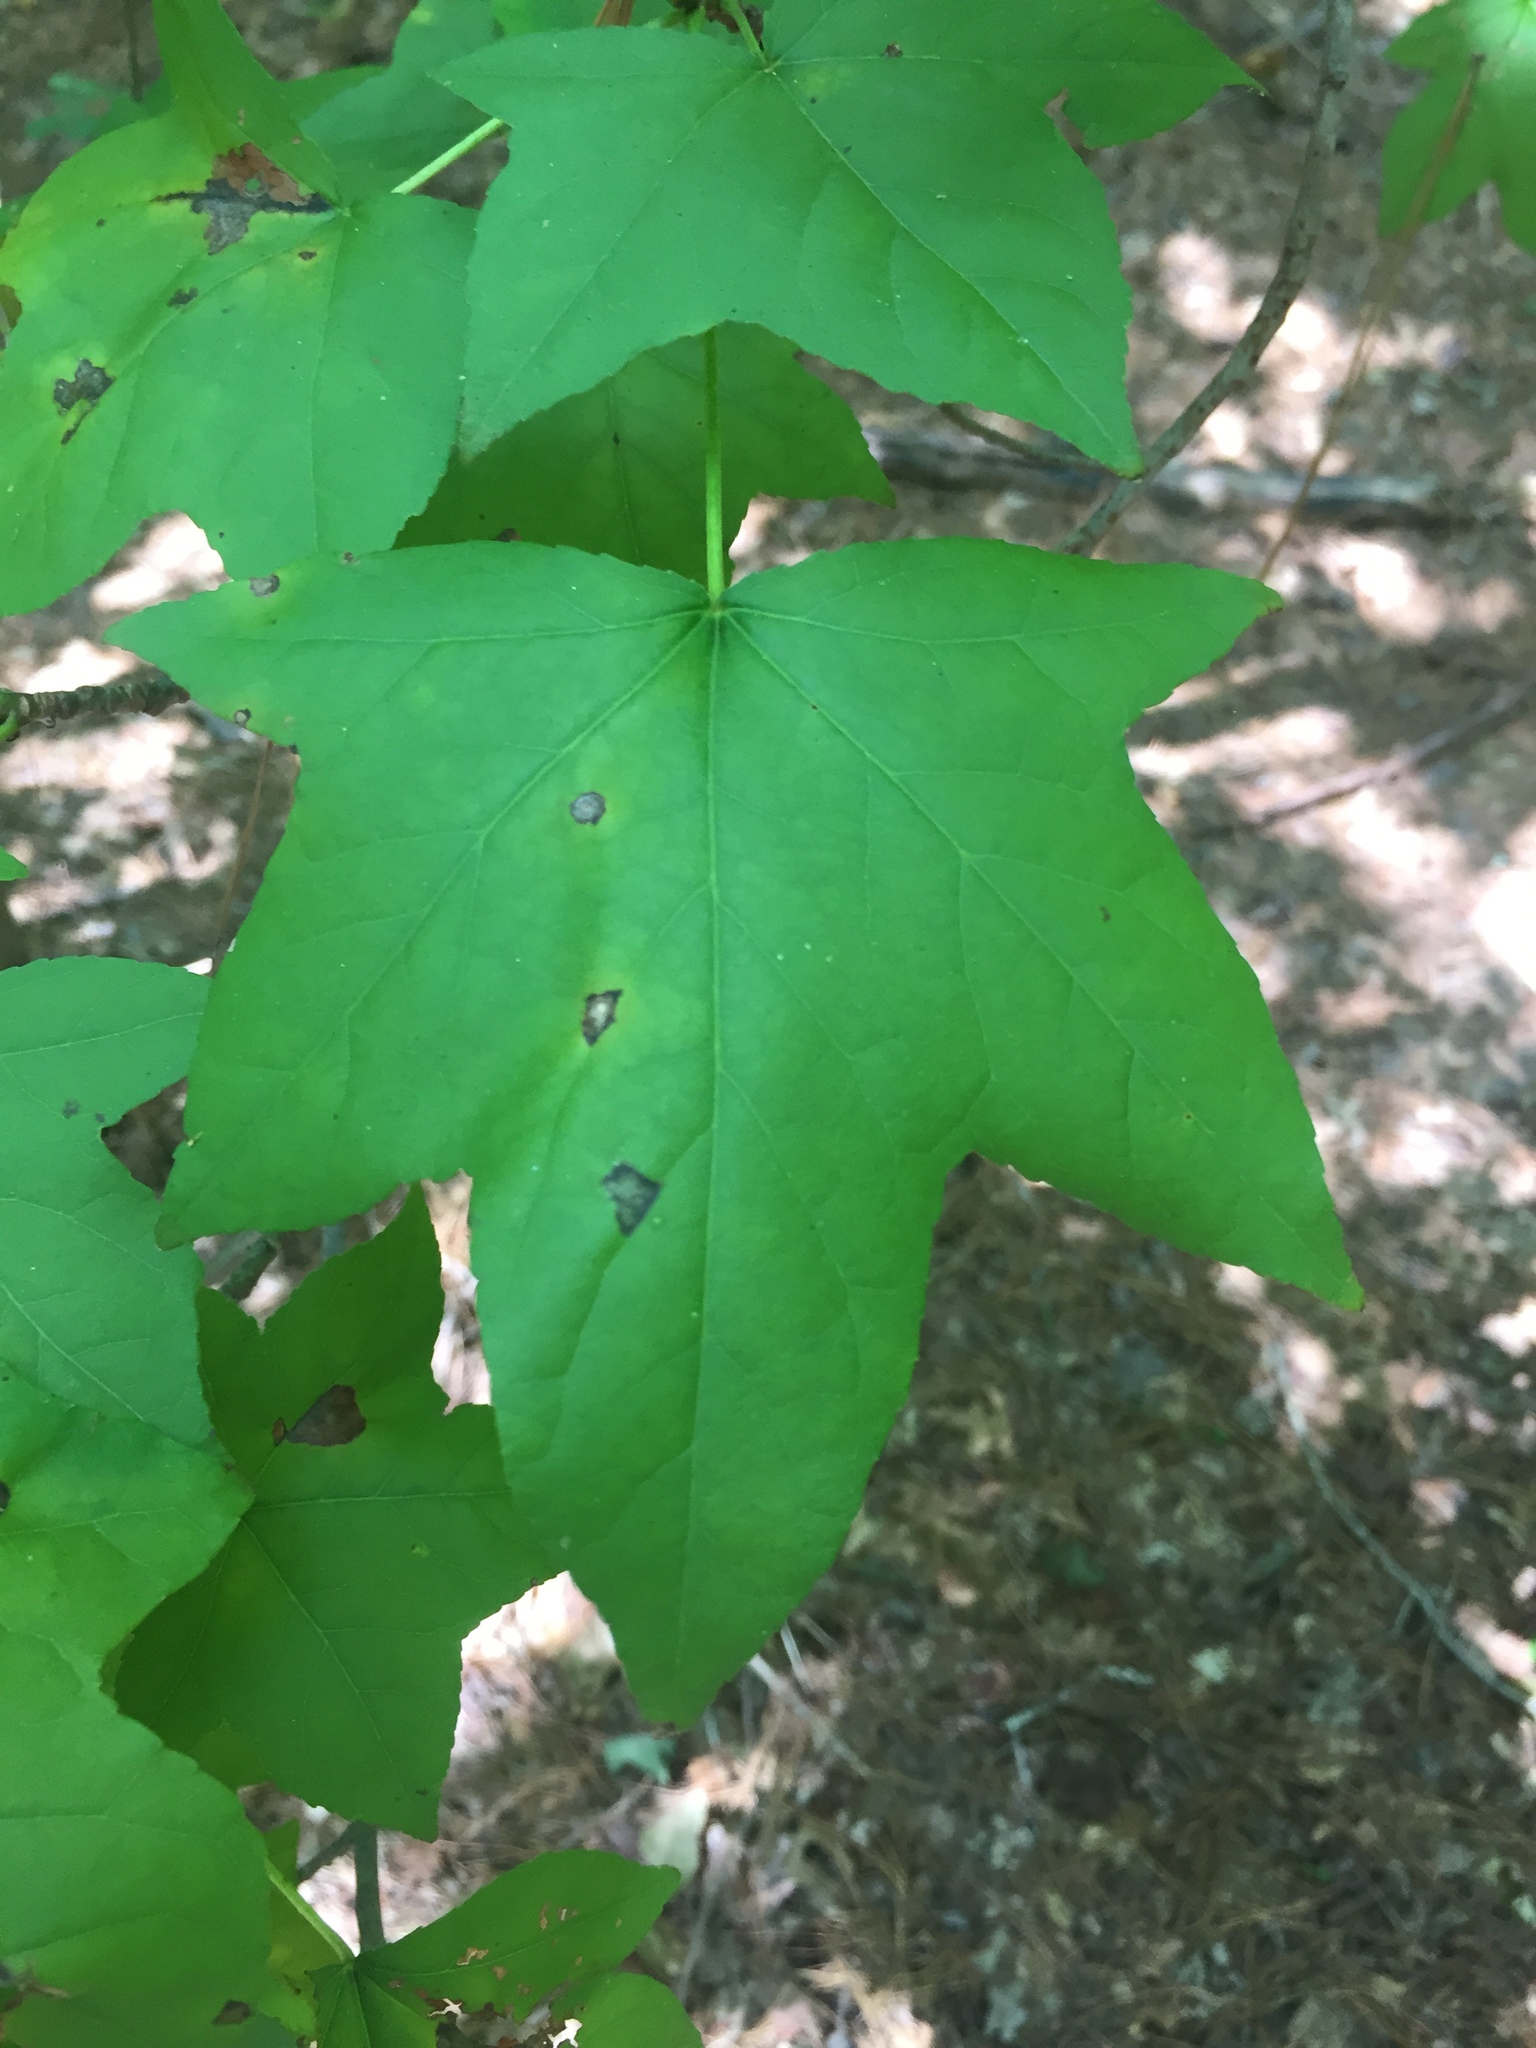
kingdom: Plantae
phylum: Tracheophyta
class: Magnoliopsida
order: Saxifragales
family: Altingiaceae
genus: Liquidambar
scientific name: Liquidambar styraciflua
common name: Sweet gum
